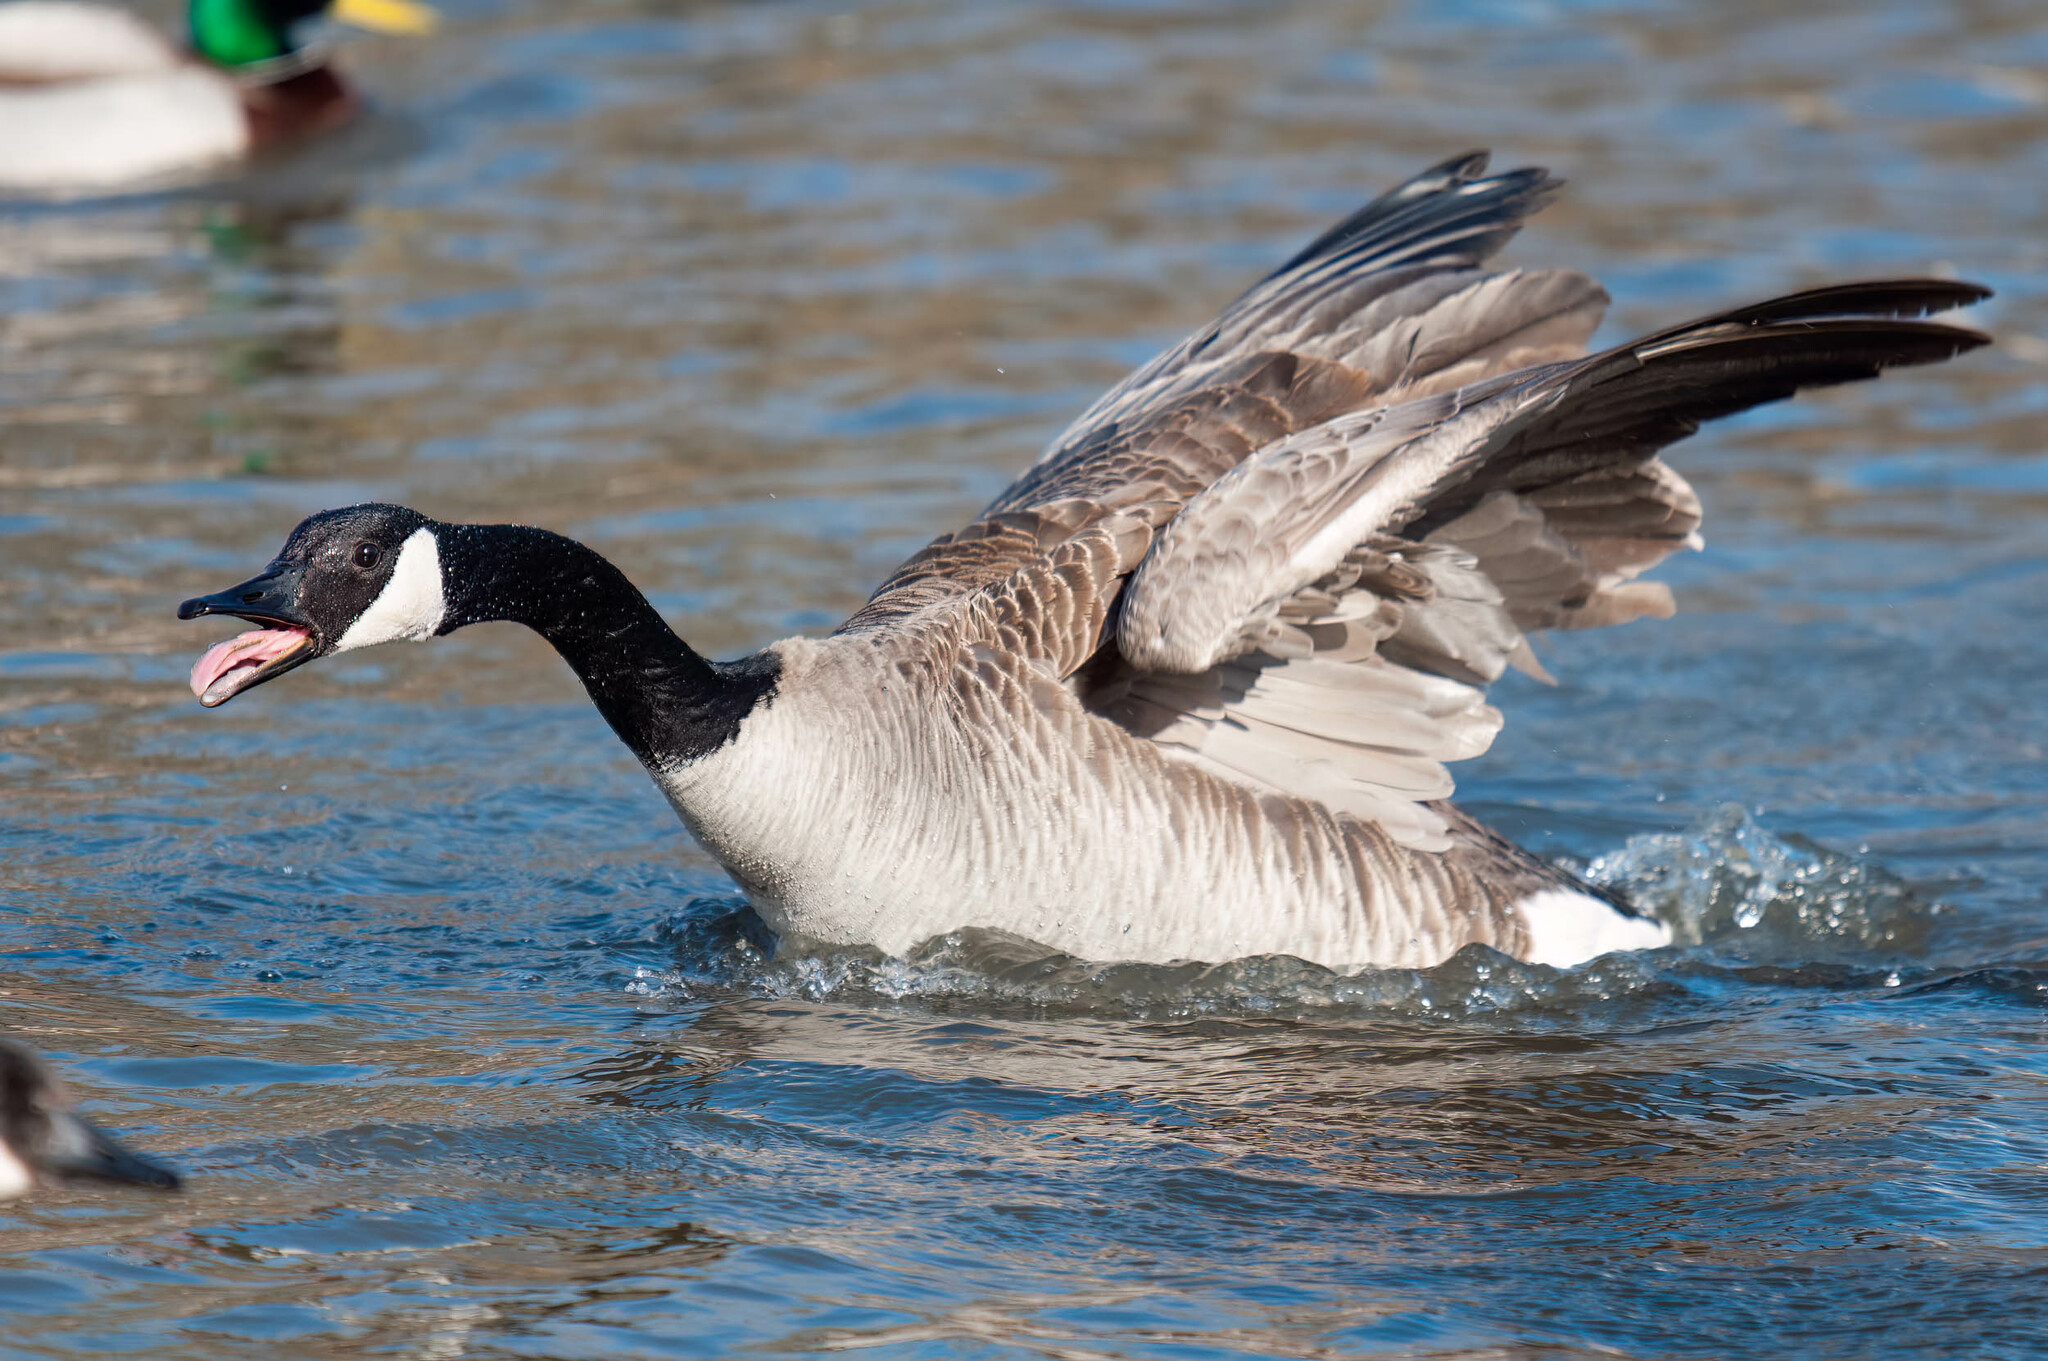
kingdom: Animalia
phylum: Chordata
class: Aves
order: Anseriformes
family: Anatidae
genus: Branta
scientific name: Branta canadensis
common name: Canada goose
